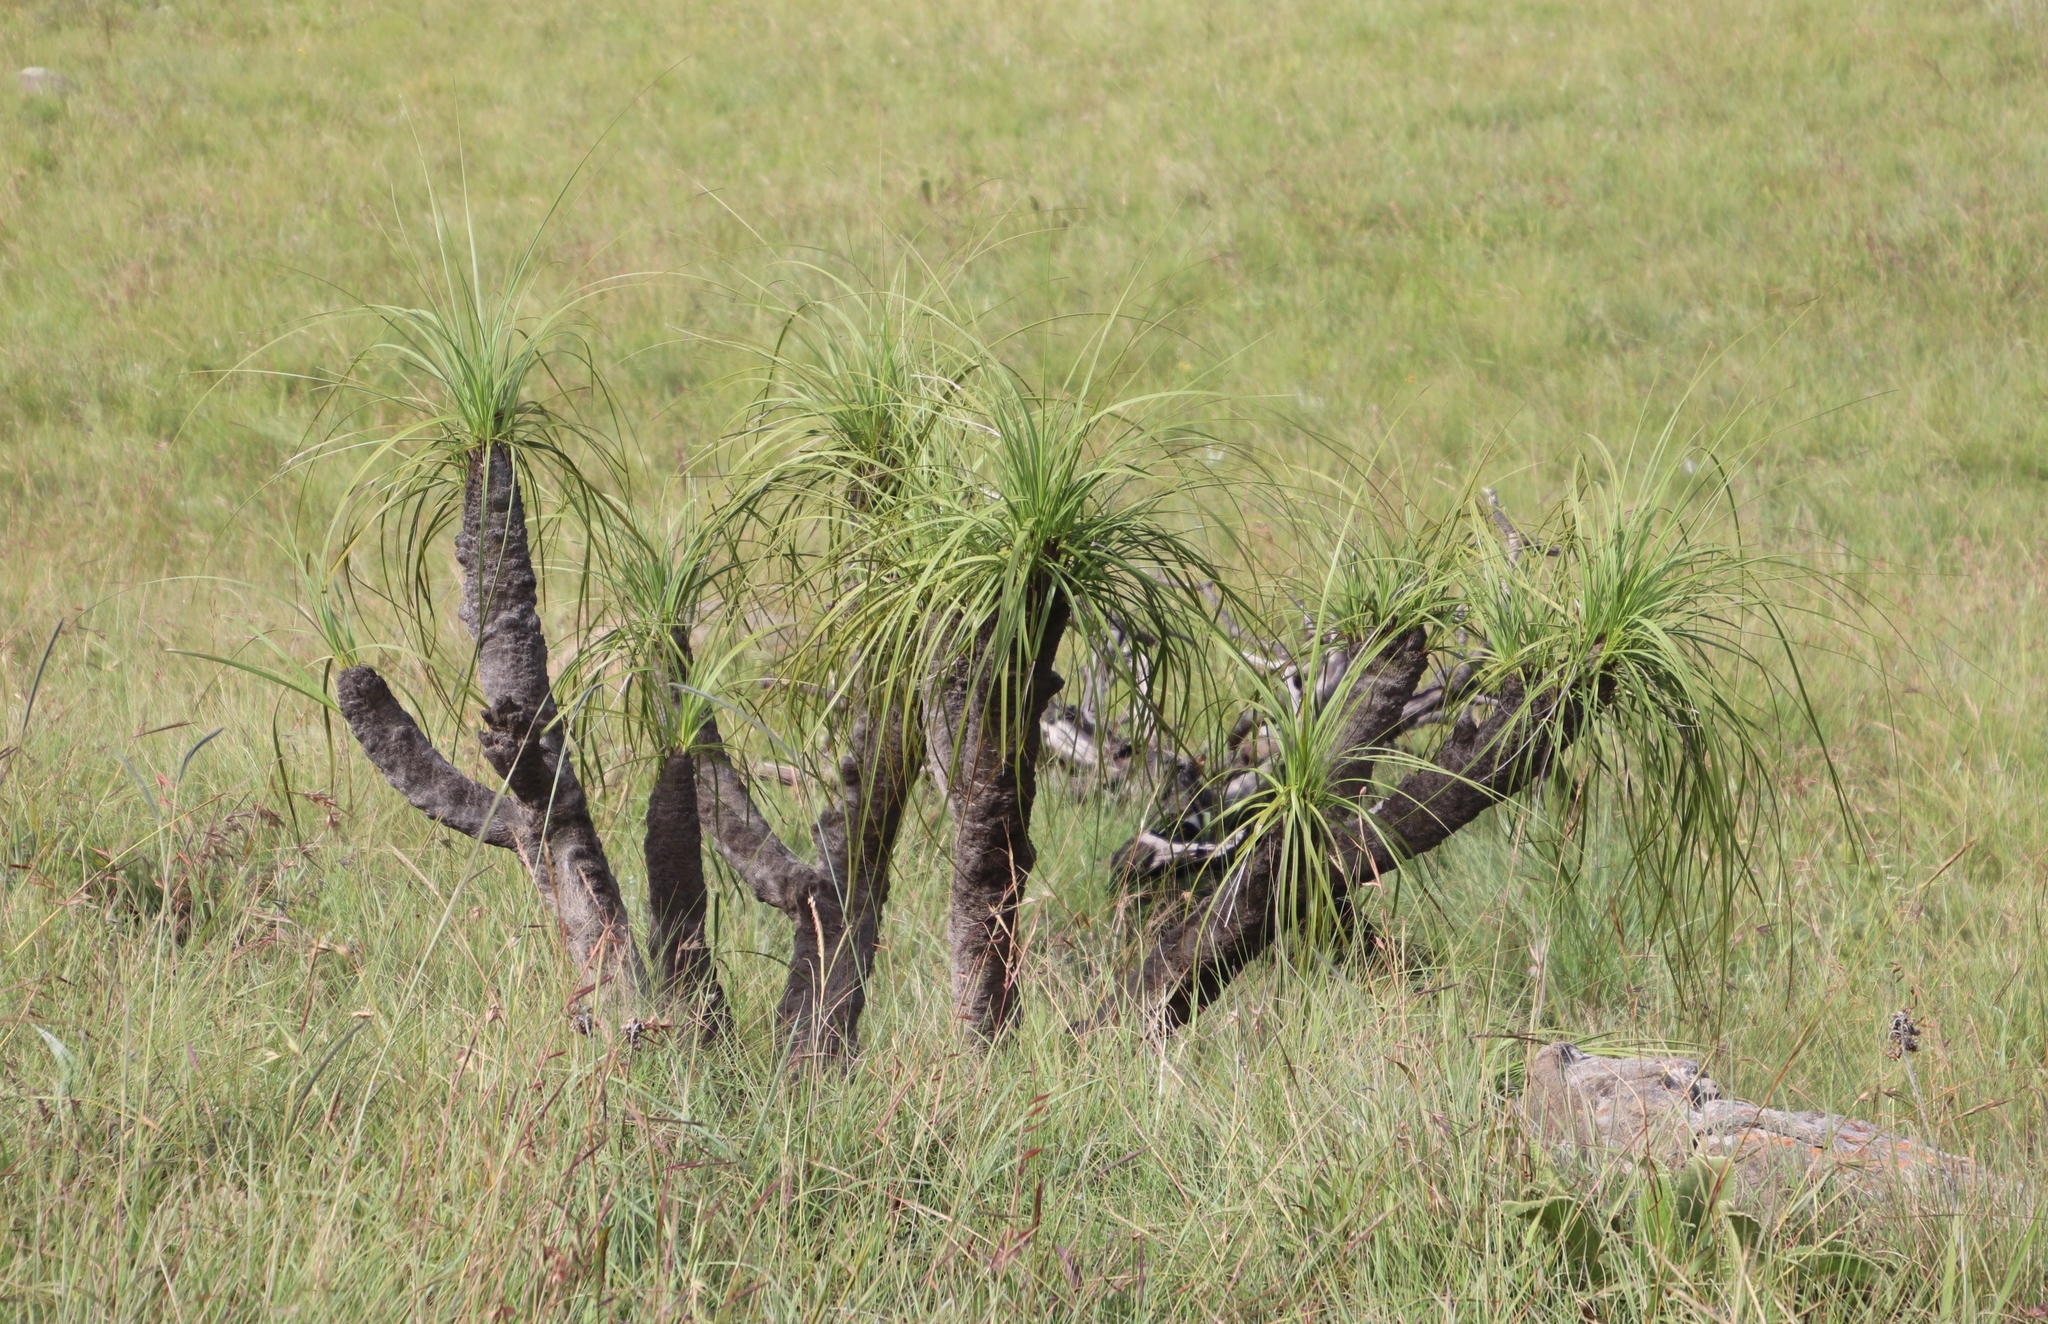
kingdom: Plantae
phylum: Tracheophyta
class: Liliopsida
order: Pandanales
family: Velloziaceae
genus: Xerophyta
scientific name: Xerophyta retinervis
